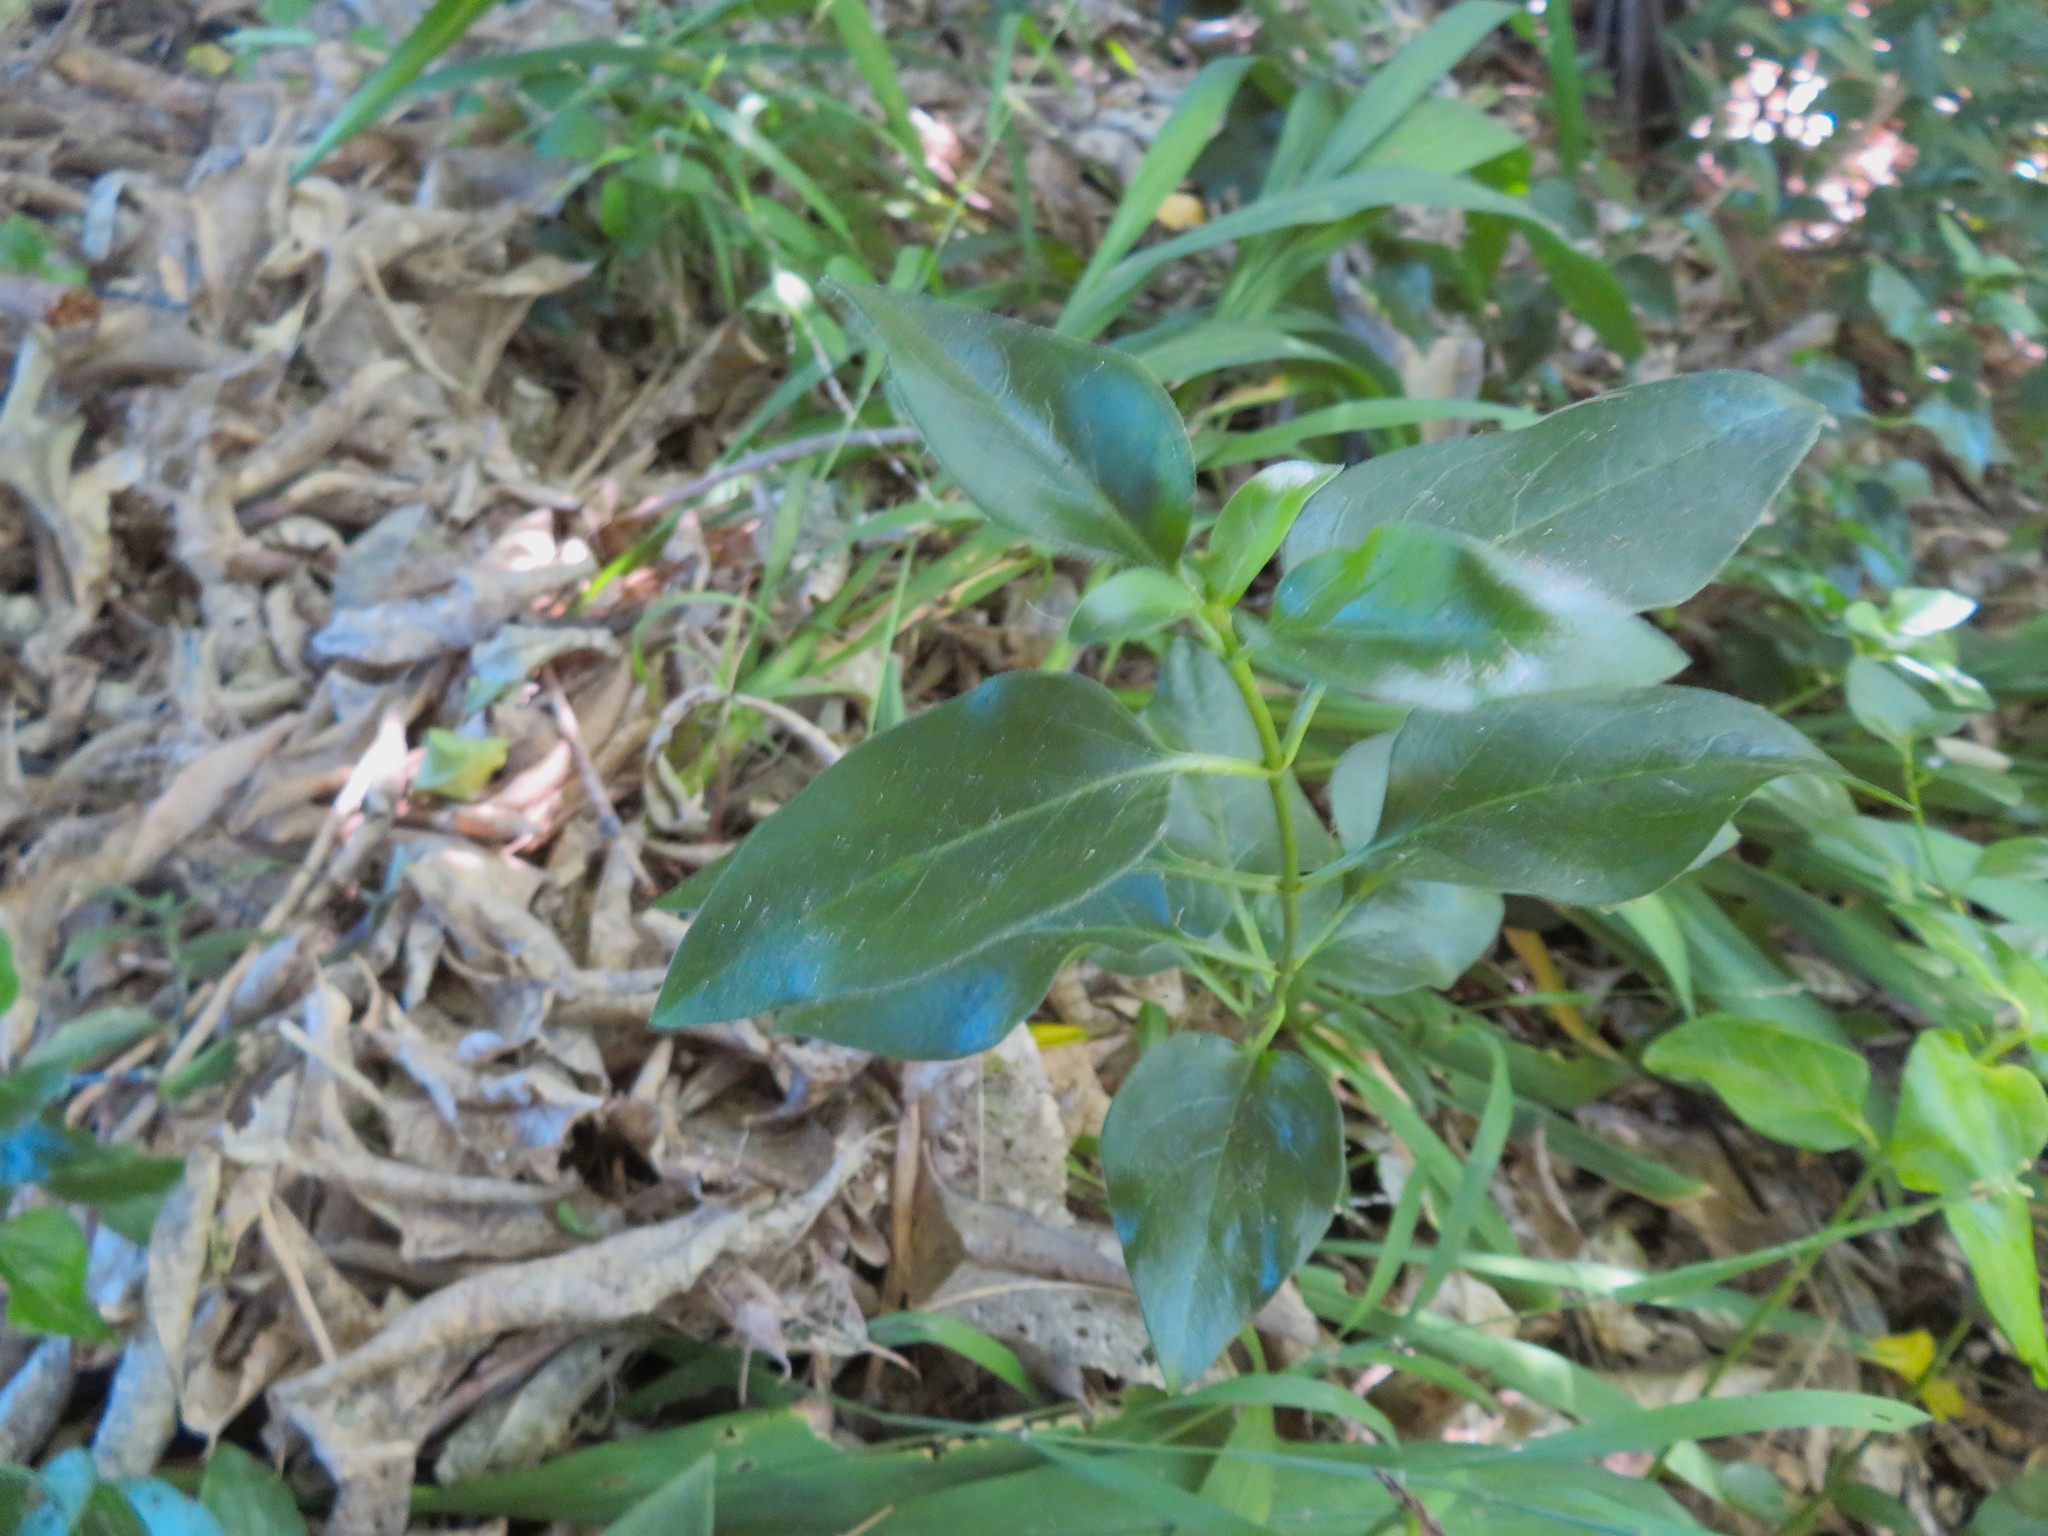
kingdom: Plantae
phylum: Tracheophyta
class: Magnoliopsida
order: Gentianales
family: Apocynaceae
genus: Vinca
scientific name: Vinca major
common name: Greater periwinkle
